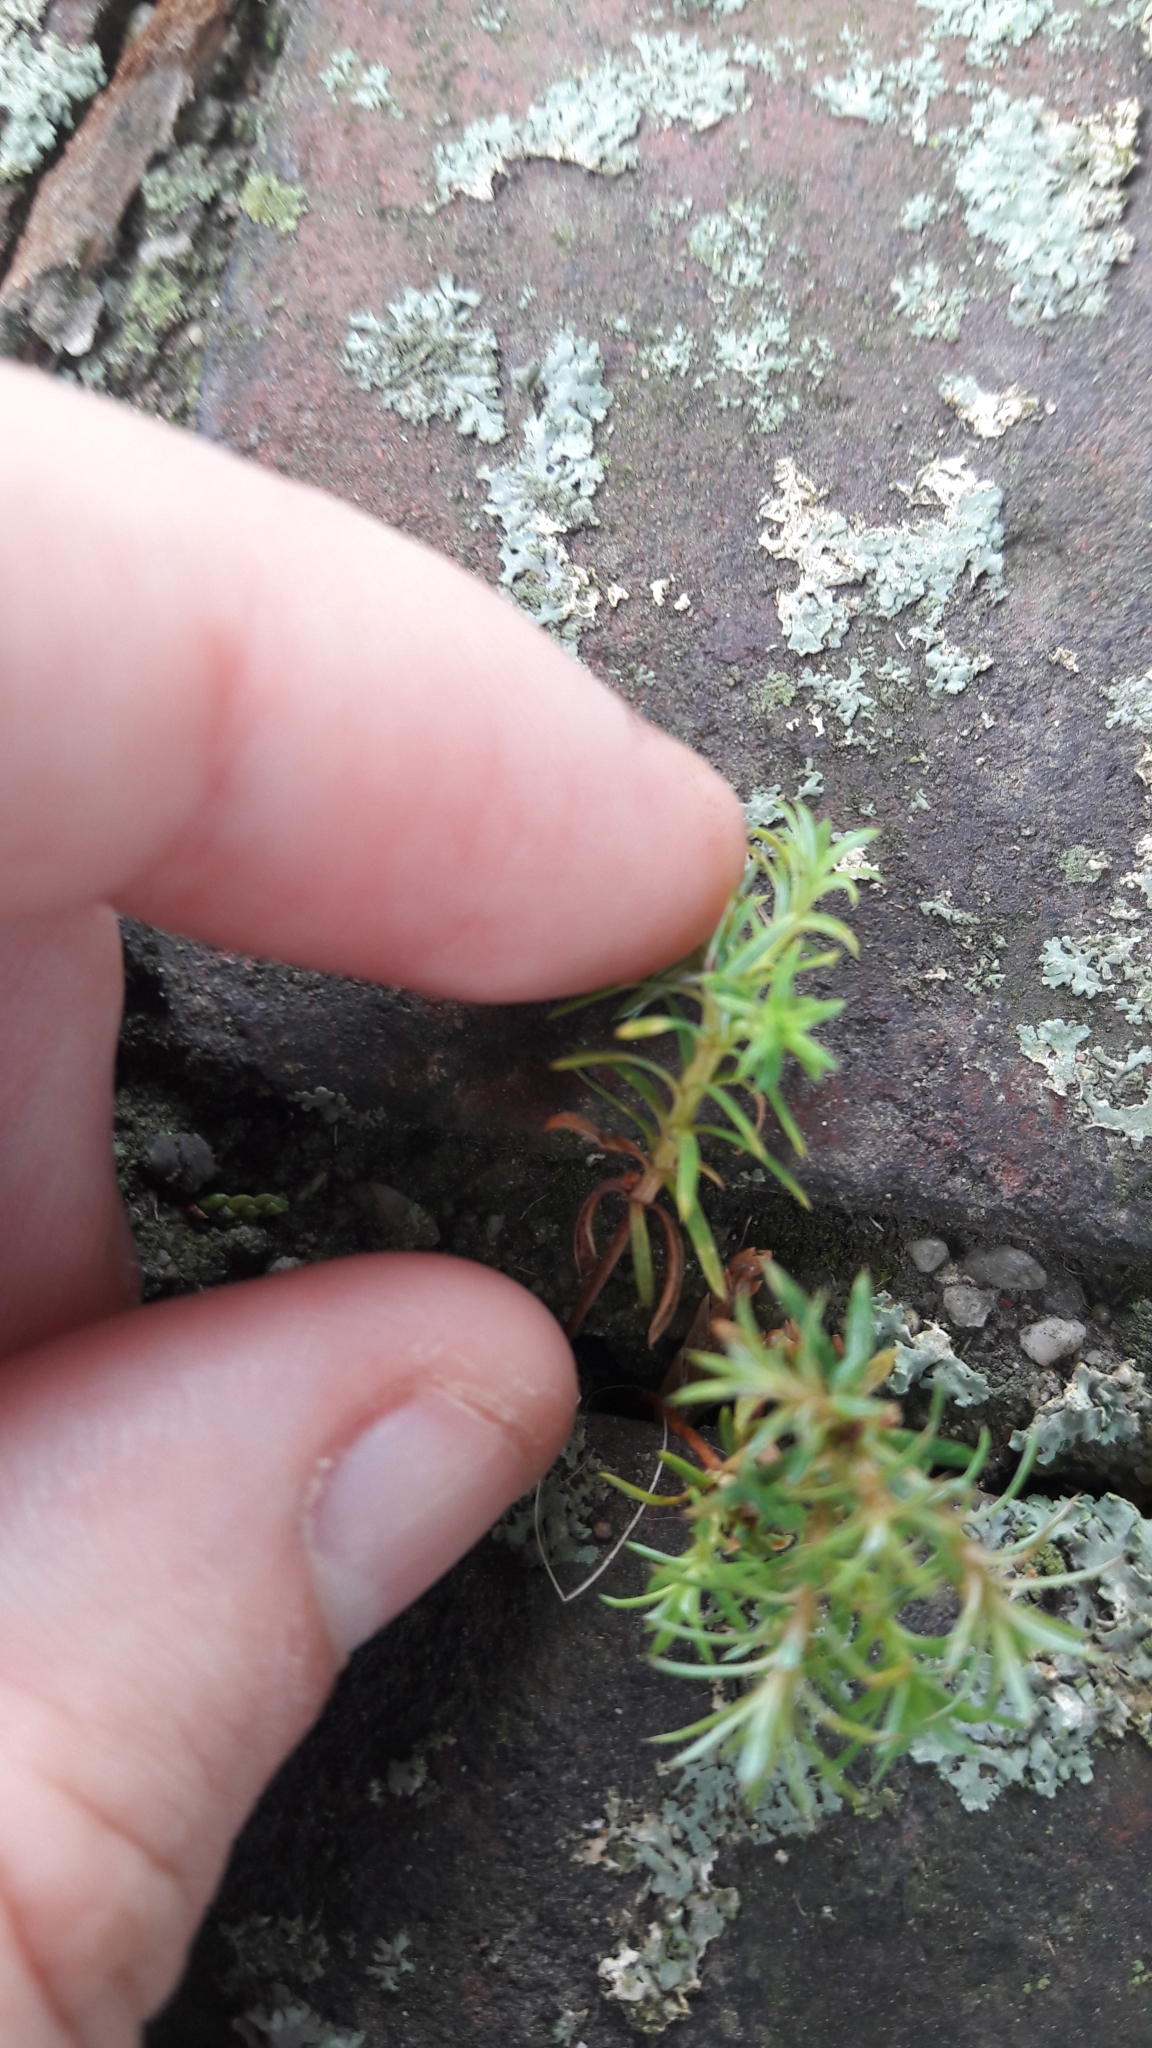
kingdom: Plantae
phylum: Tracheophyta
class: Magnoliopsida
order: Caryophyllales
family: Caryophyllaceae
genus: Sagina
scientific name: Sagina procumbens
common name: Procumbent pearlwort
